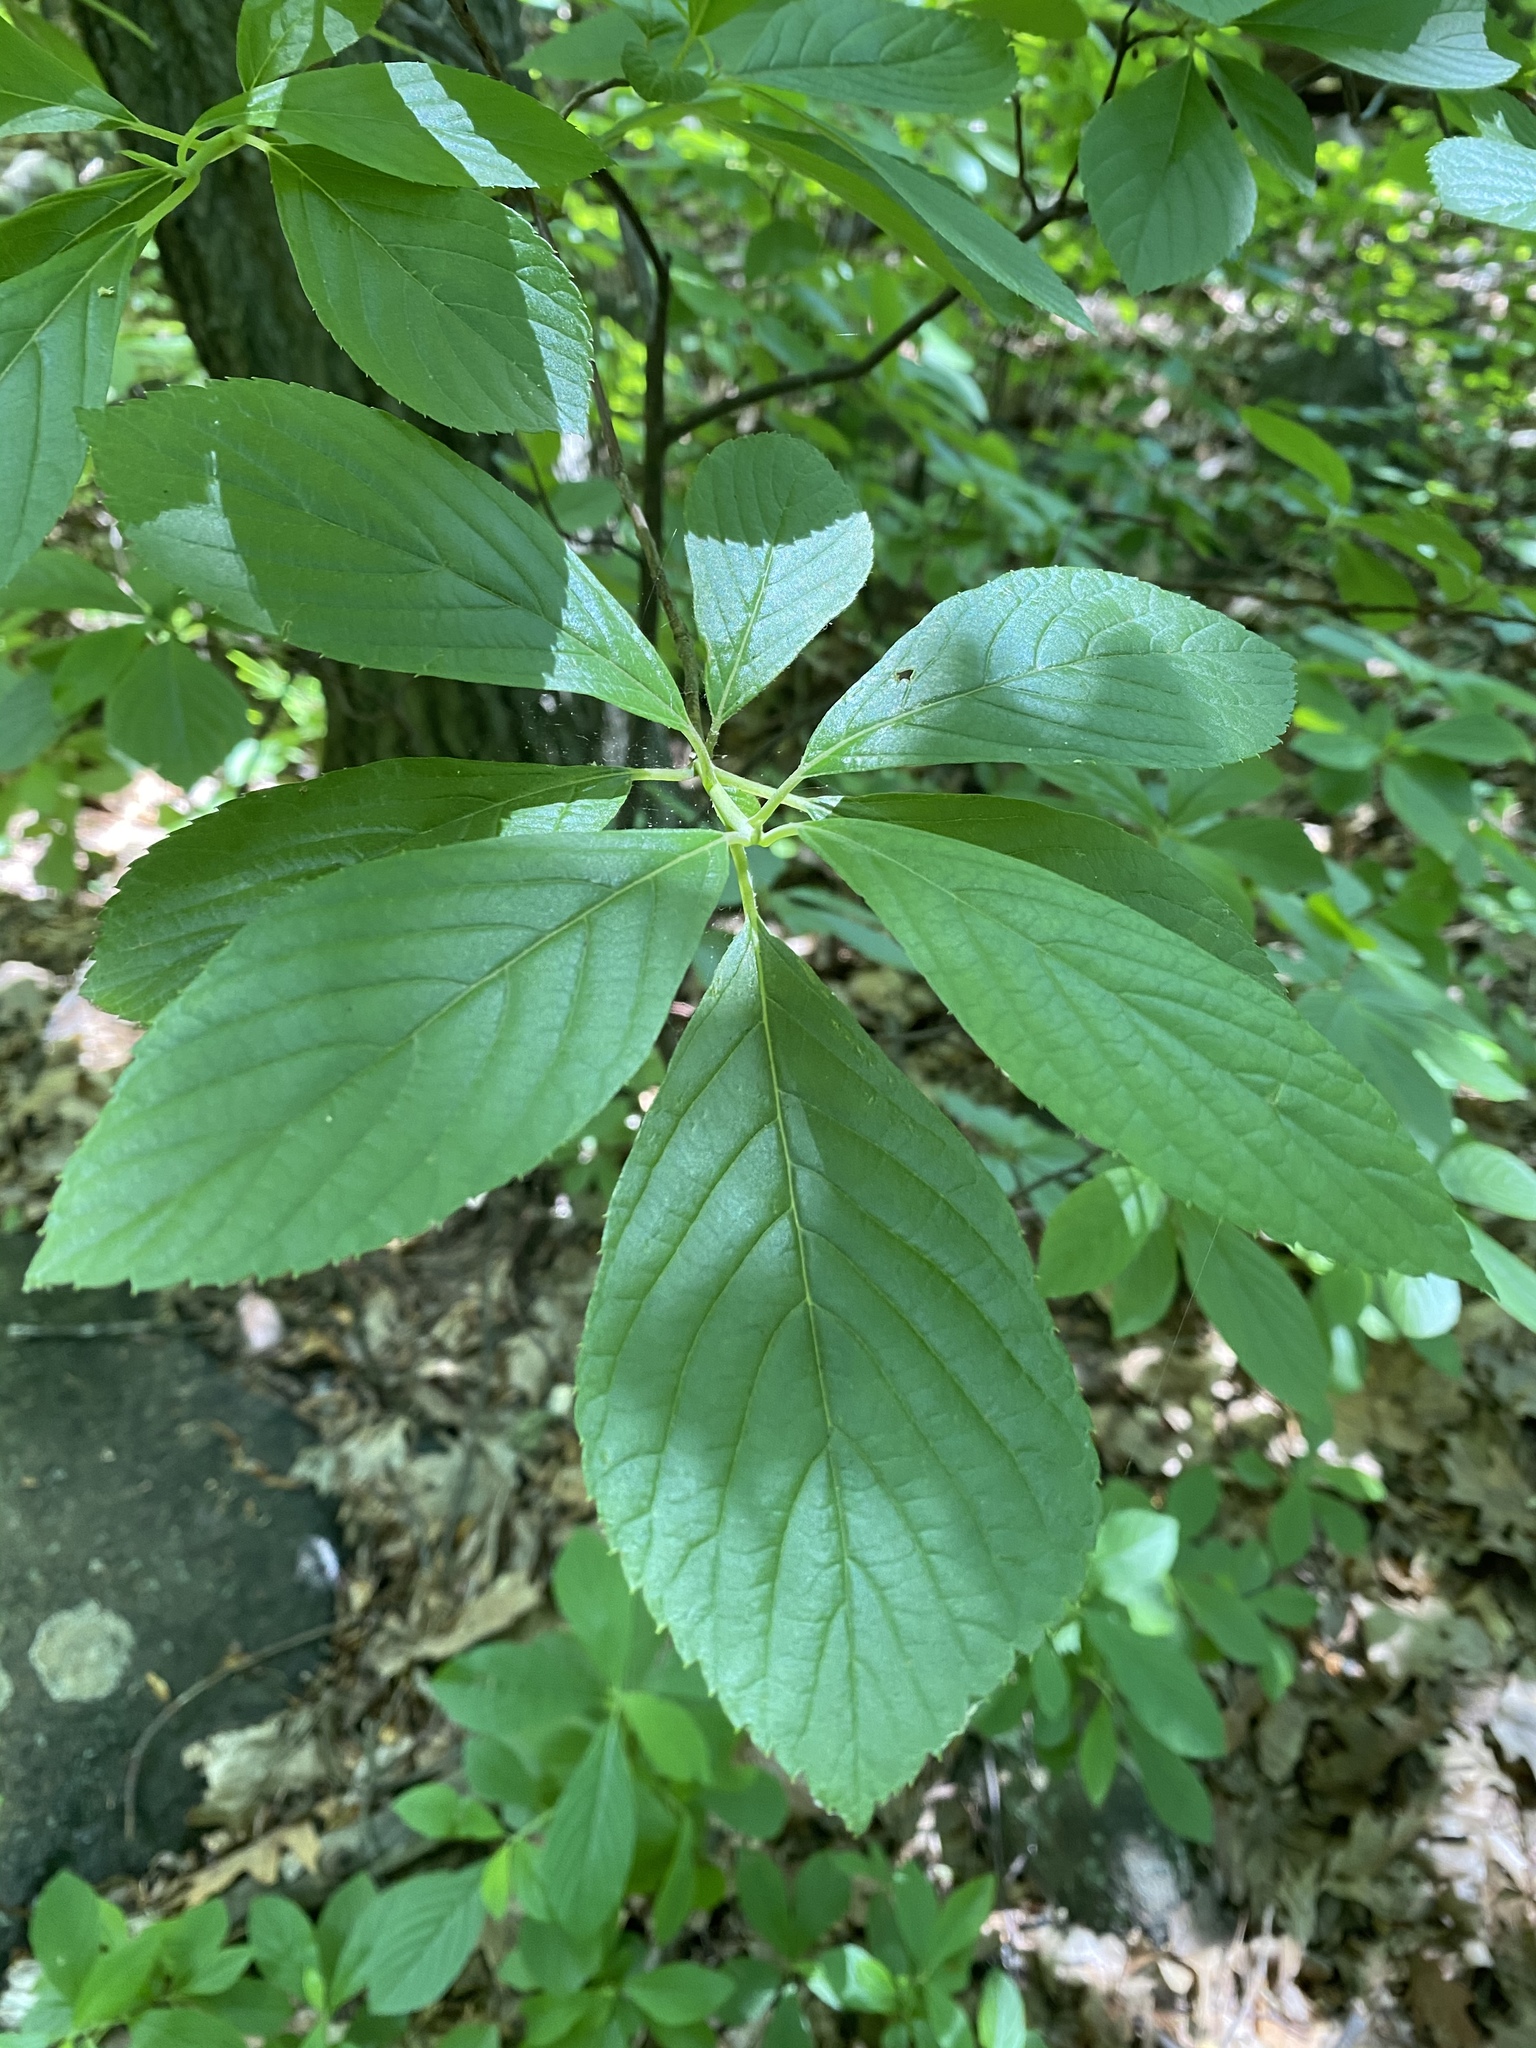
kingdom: Plantae
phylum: Tracheophyta
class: Magnoliopsida
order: Ericales
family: Clethraceae
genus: Clethra
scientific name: Clethra alnifolia
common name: Sweet pepperbush
